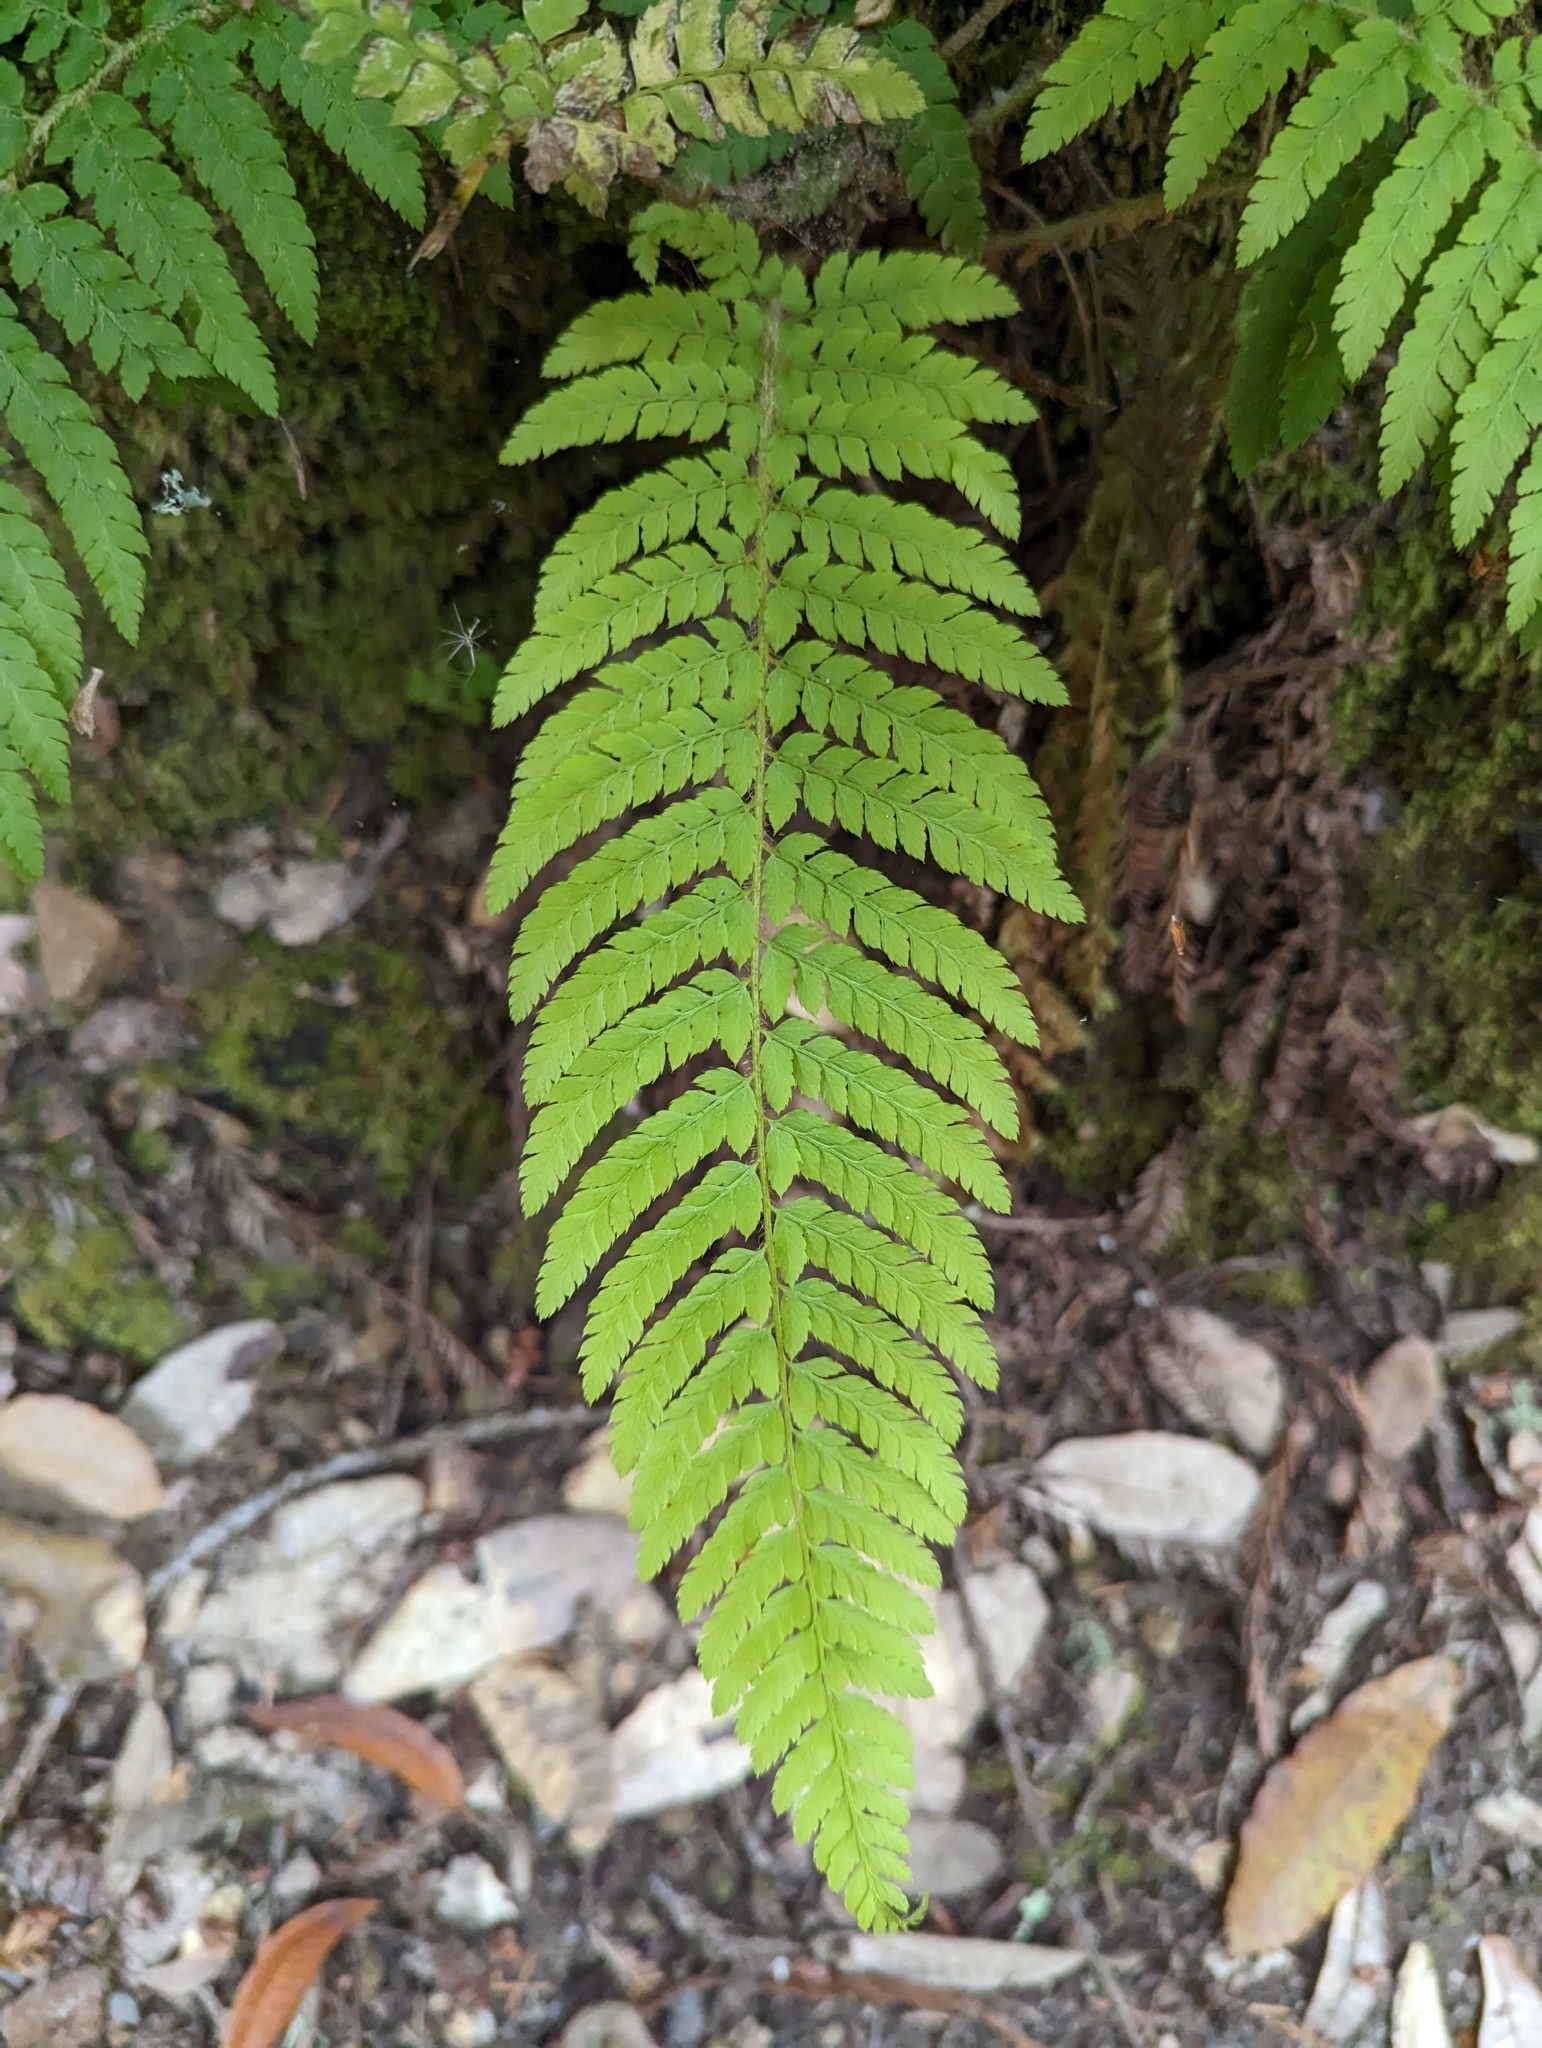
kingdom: Plantae
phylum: Tracheophyta
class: Polypodiopsida
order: Polypodiales
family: Dryopteridaceae
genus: Polystichum
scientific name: Polystichum dudleyi
